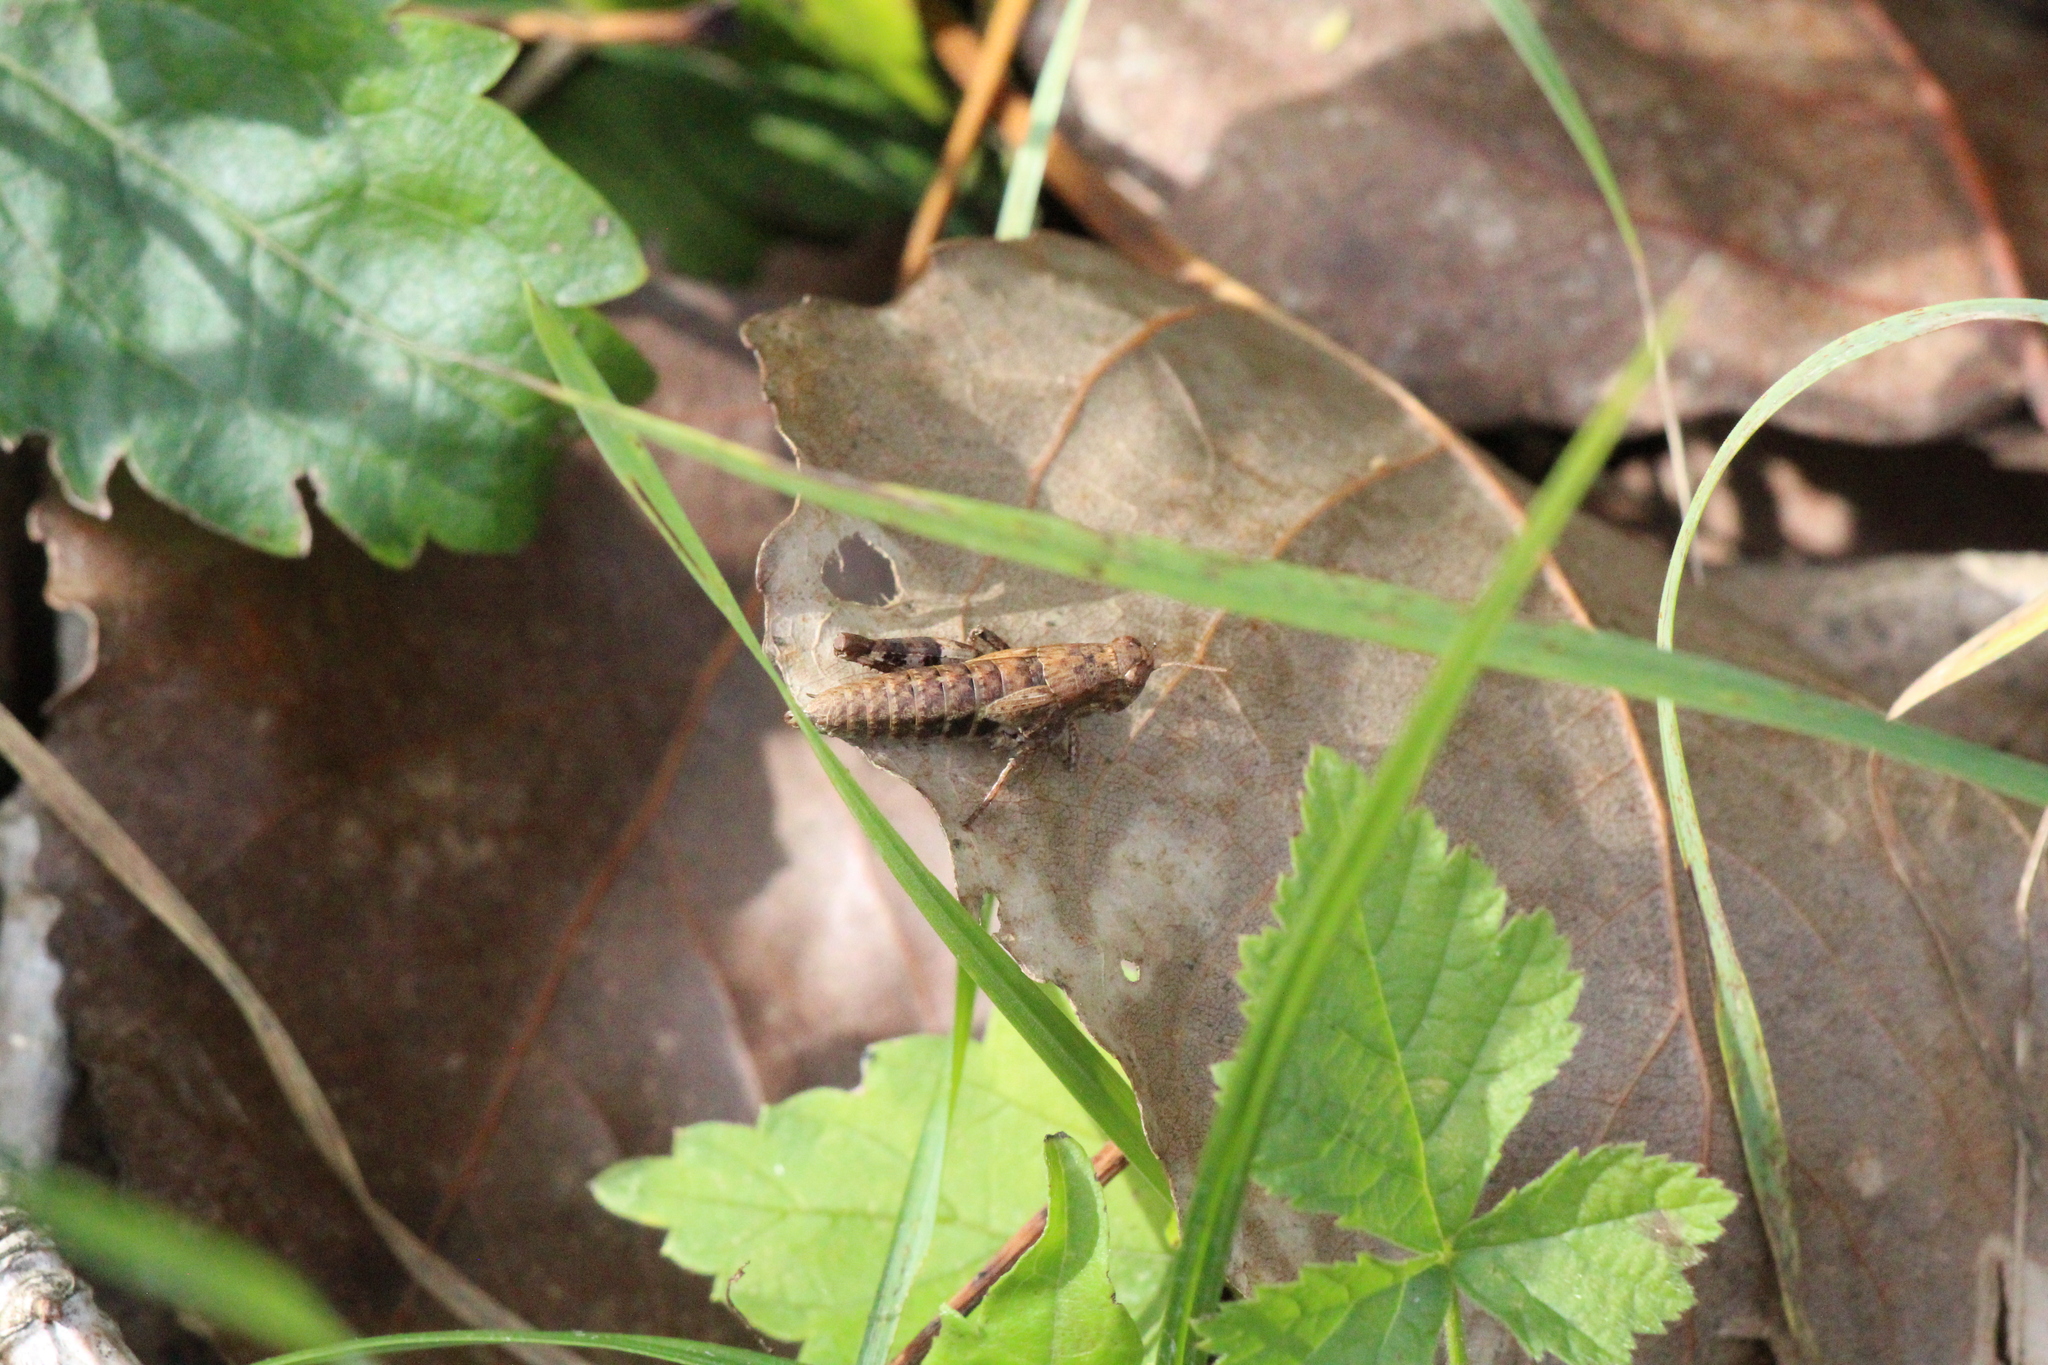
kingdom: Animalia
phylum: Arthropoda
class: Insecta
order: Orthoptera
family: Acrididae
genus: Pezotettix
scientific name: Pezotettix giornae
